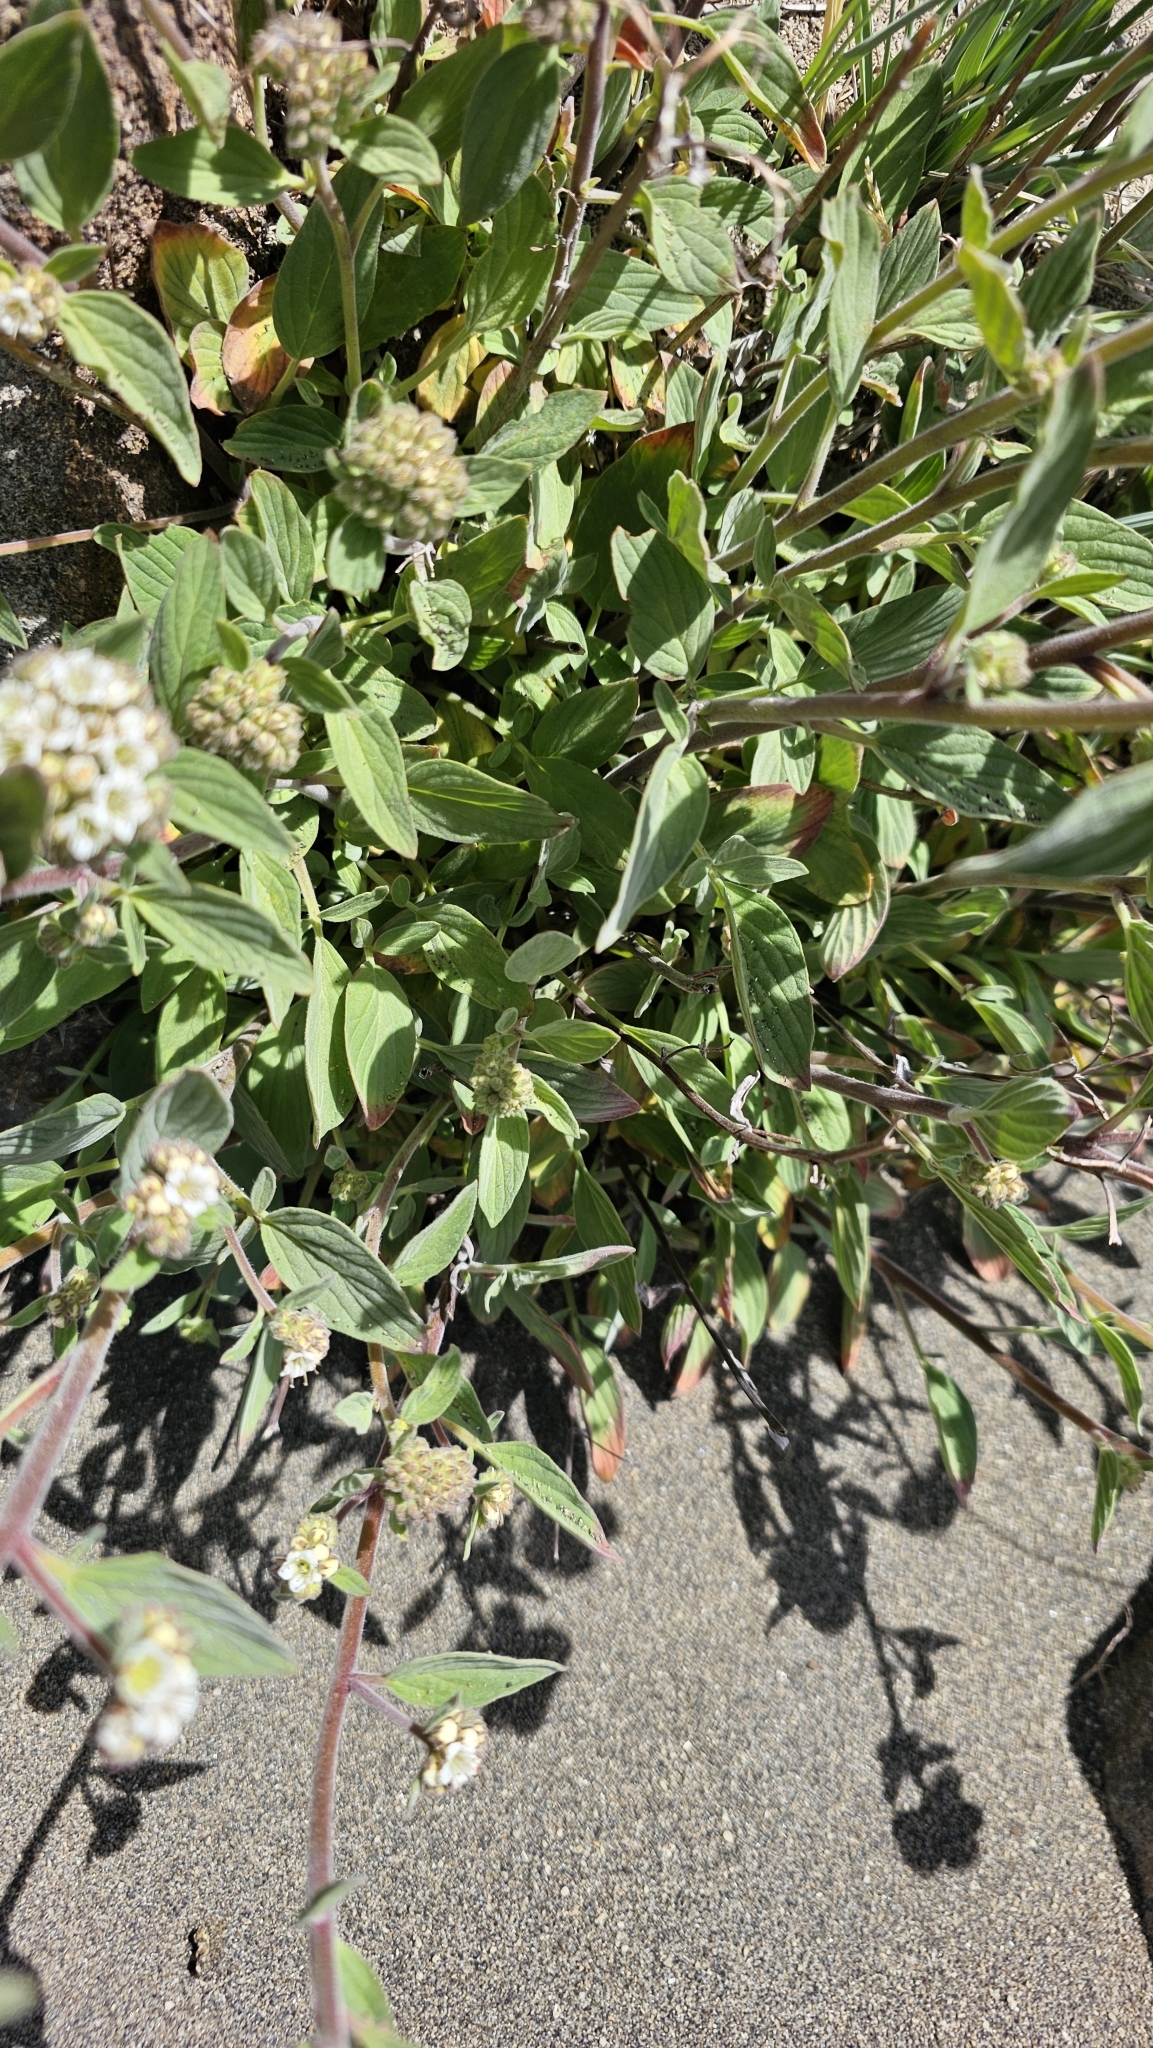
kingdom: Plantae
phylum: Tracheophyta
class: Magnoliopsida
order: Boraginales
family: Hydrophyllaceae
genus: Phacelia
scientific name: Phacelia secunda
